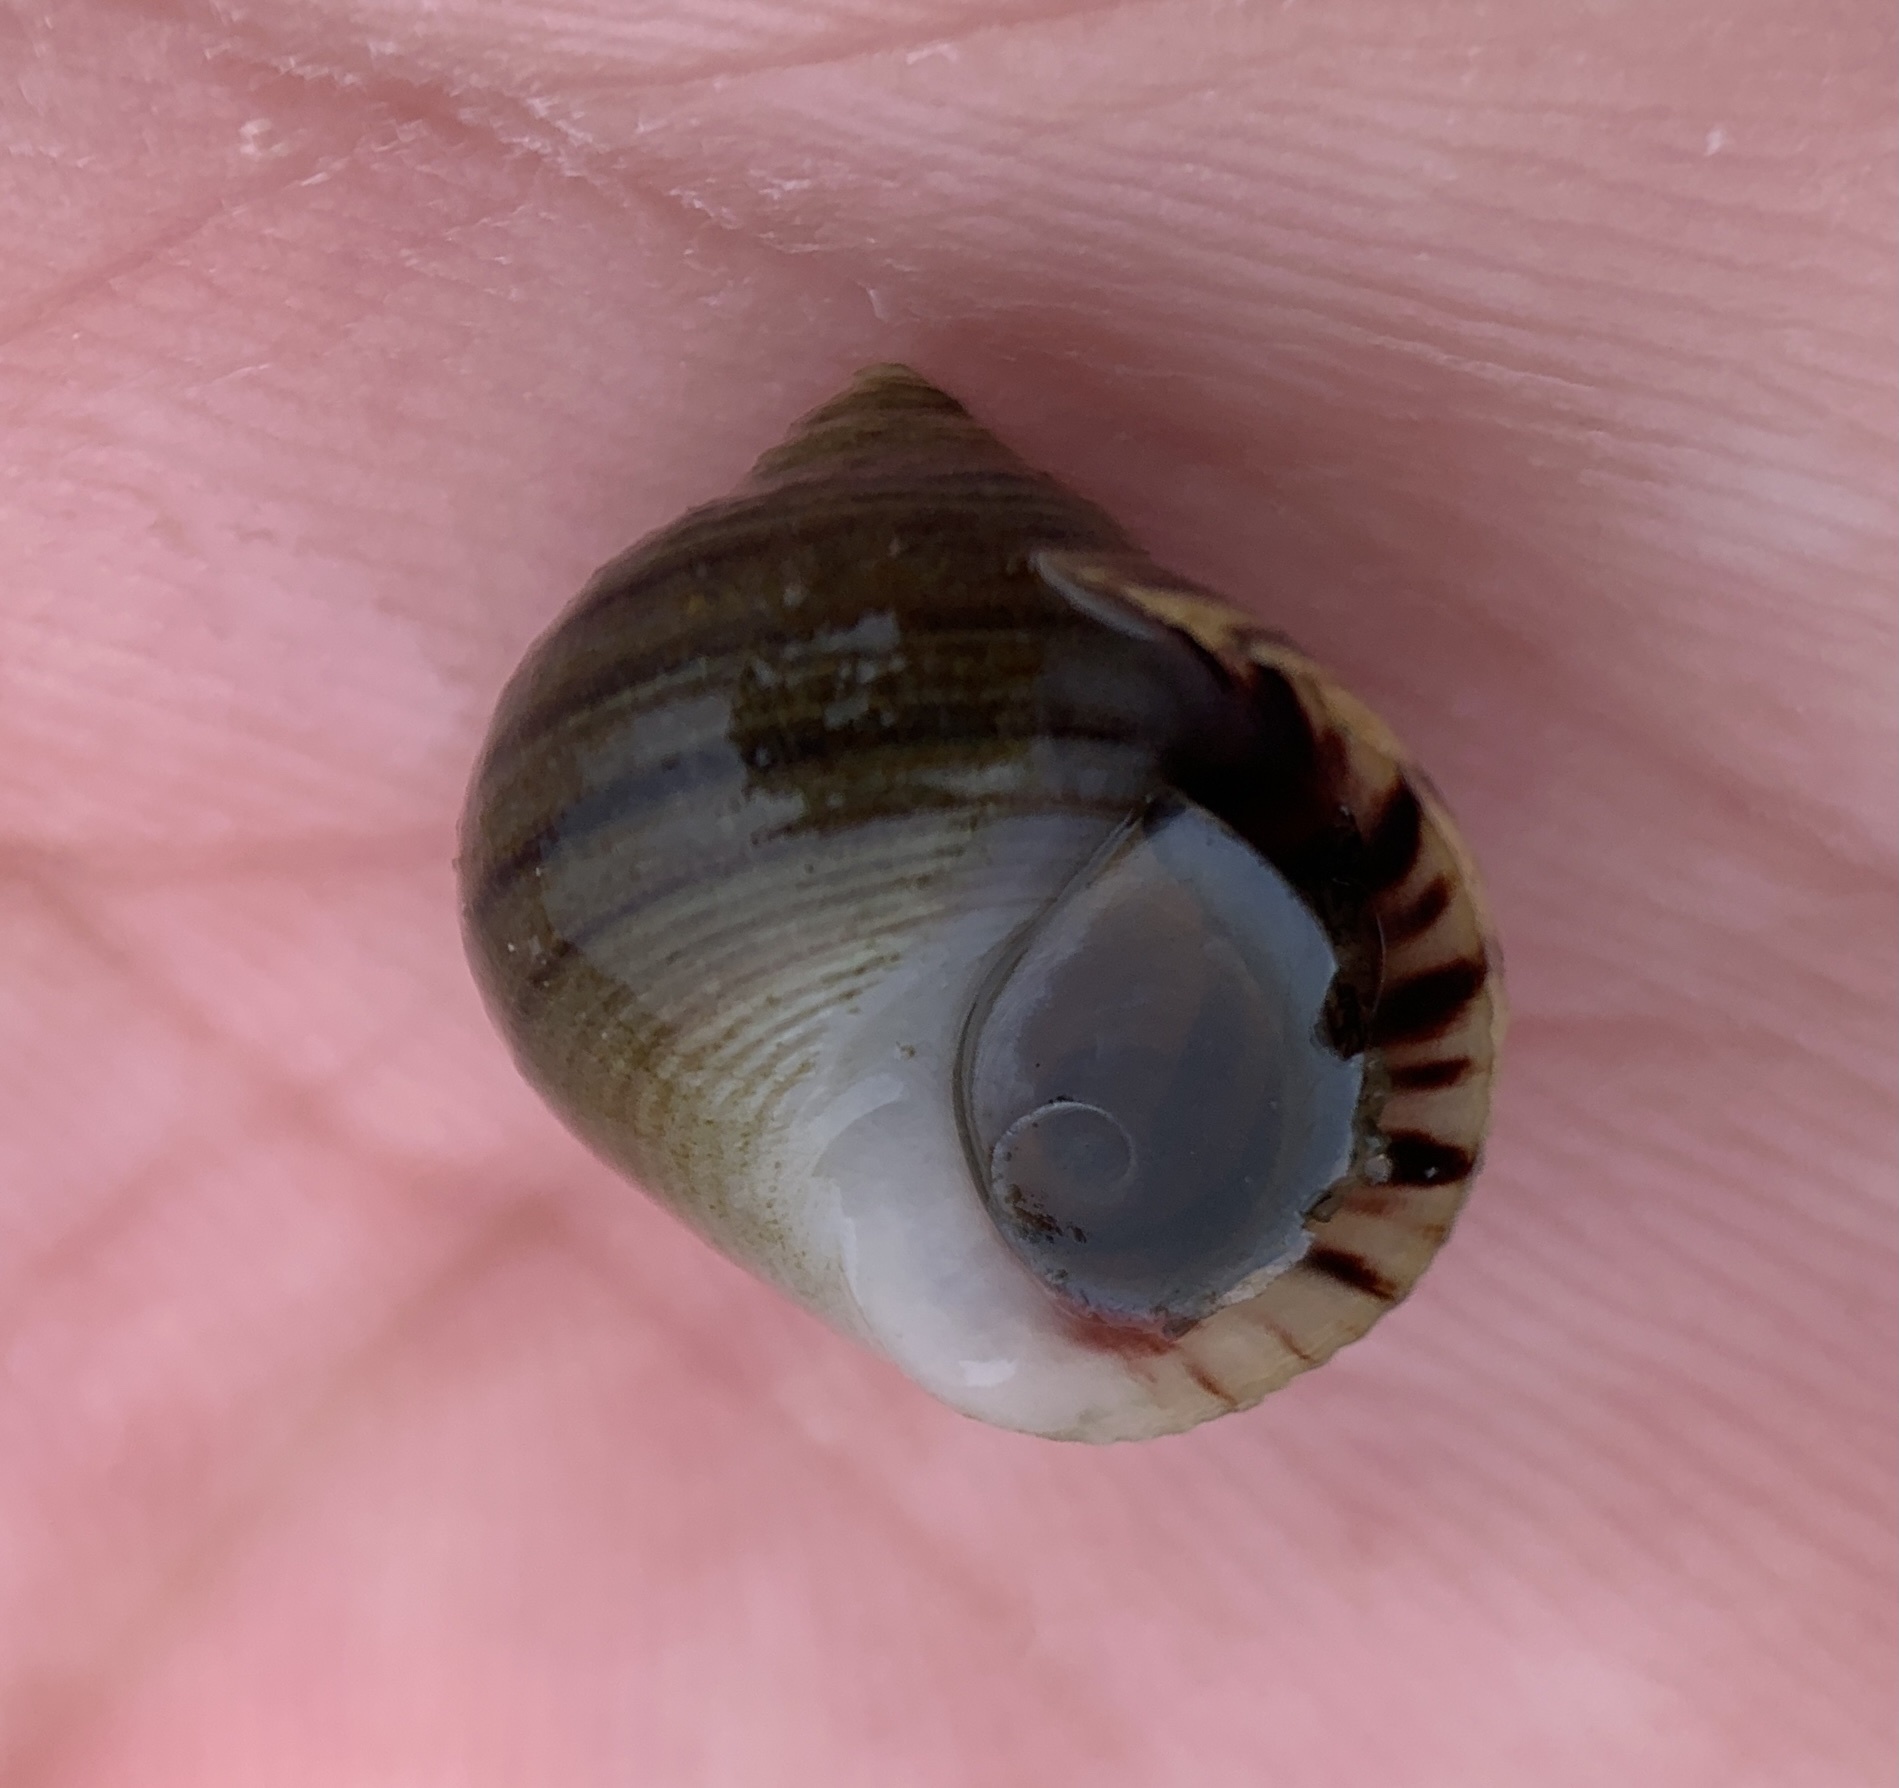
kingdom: Animalia
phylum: Mollusca
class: Gastropoda
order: Littorinimorpha
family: Littorinidae
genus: Littorina
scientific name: Littorina littorea
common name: Common periwinkle
